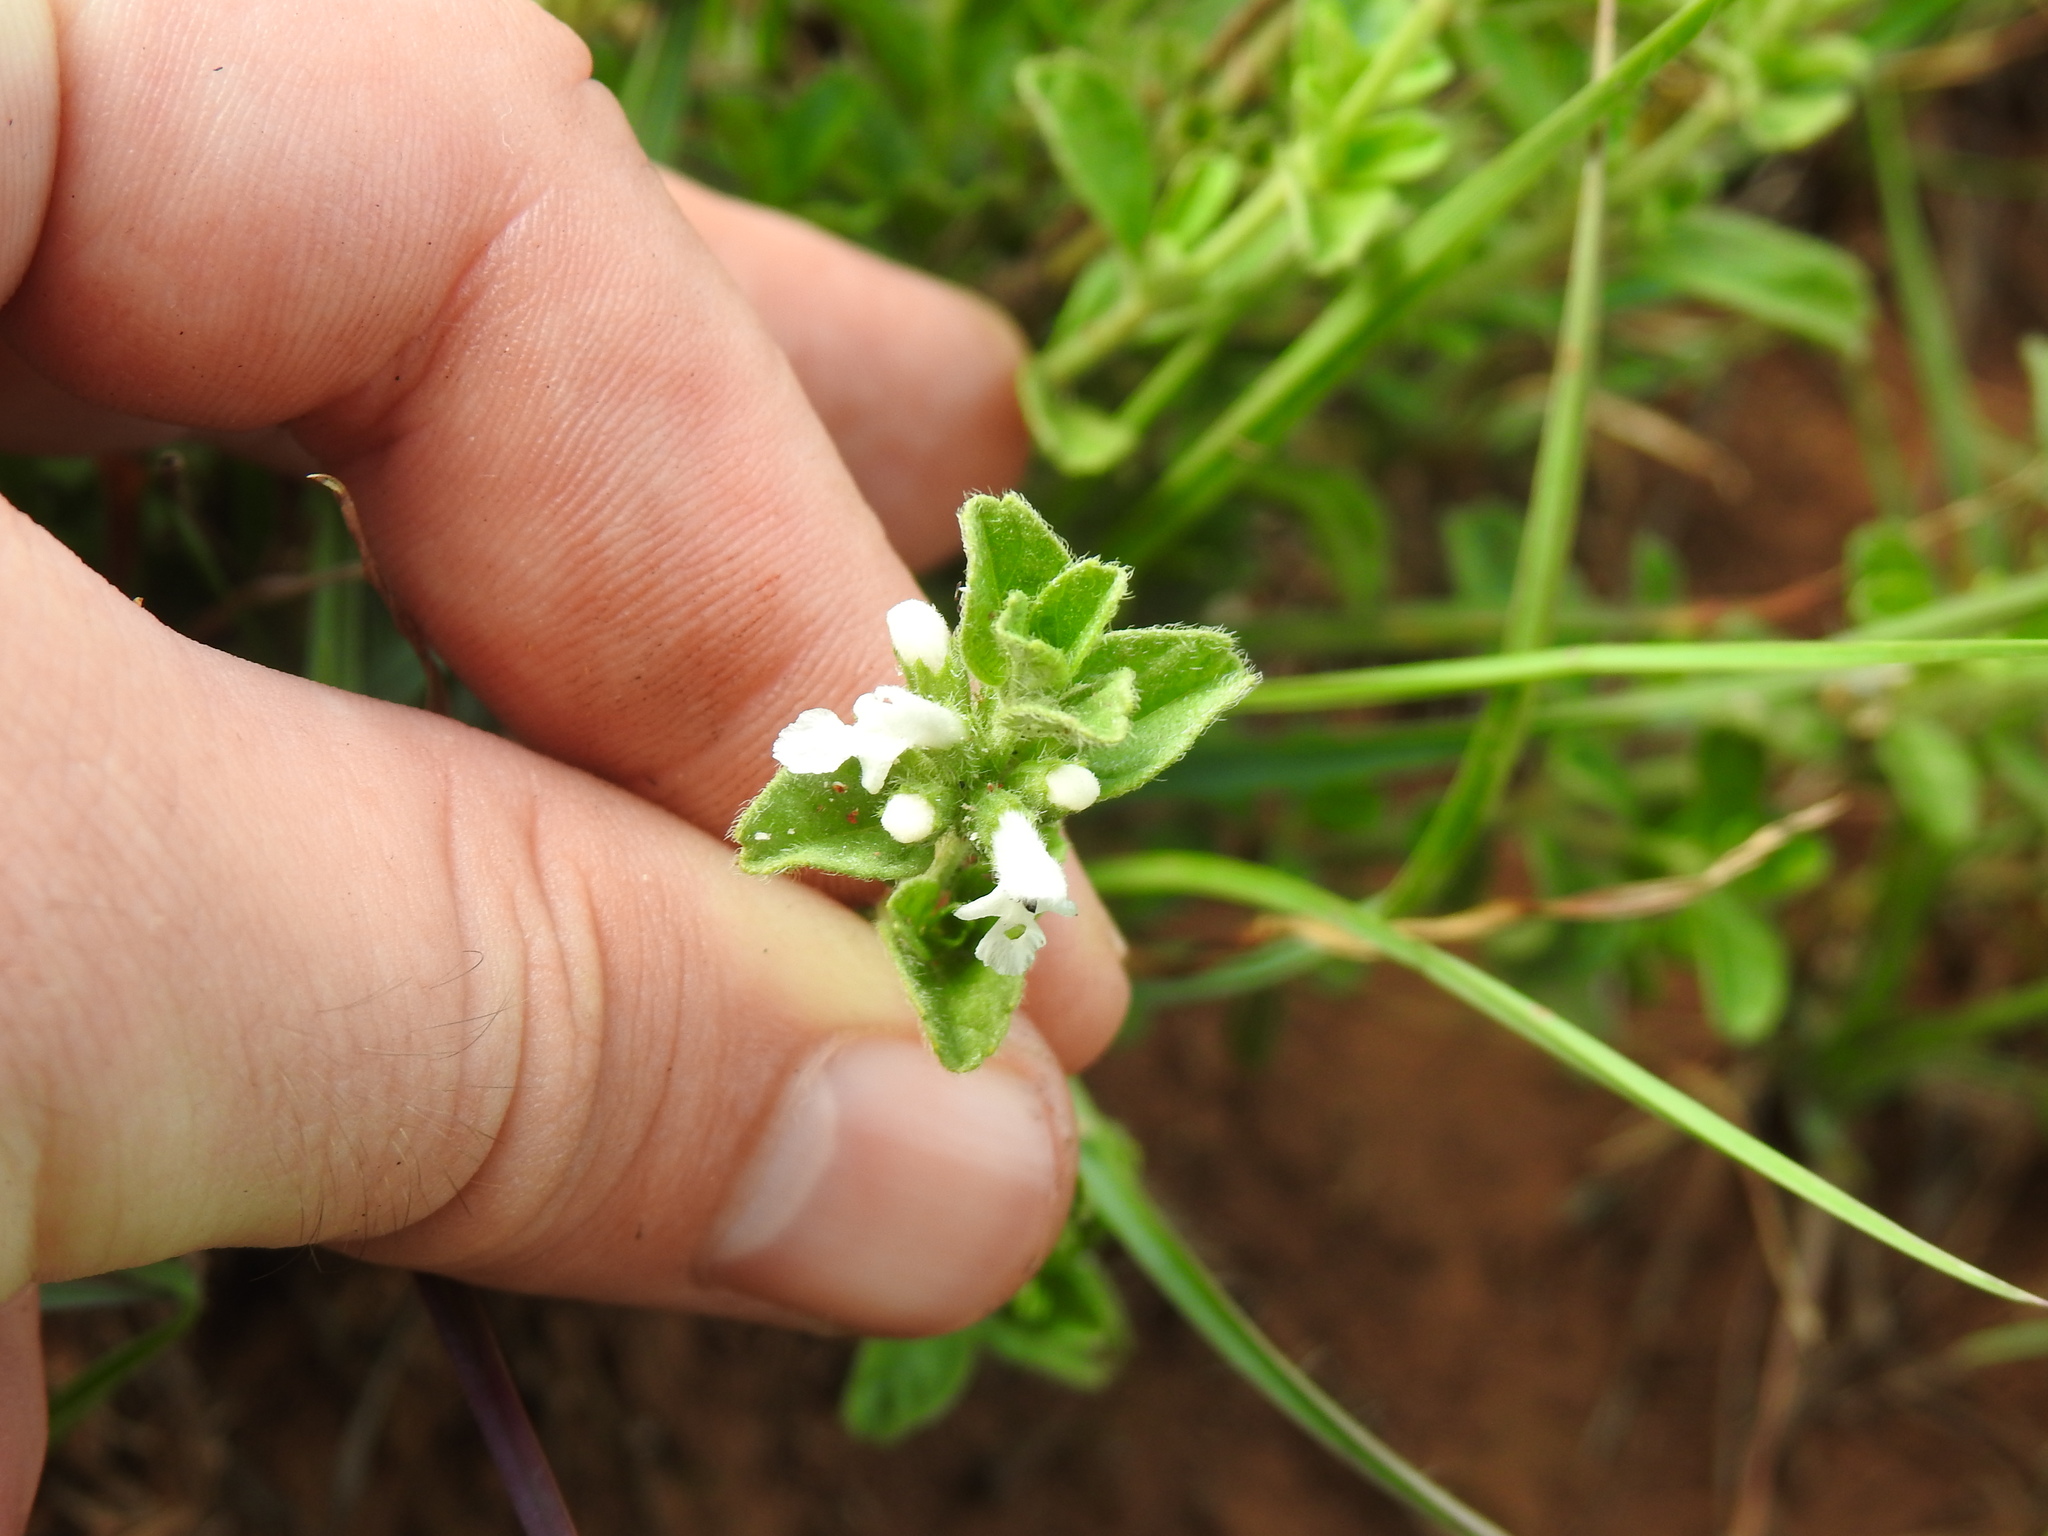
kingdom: Plantae
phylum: Tracheophyta
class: Magnoliopsida
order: Lamiales
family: Lamiaceae
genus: Acrotome
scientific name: Acrotome hispida
